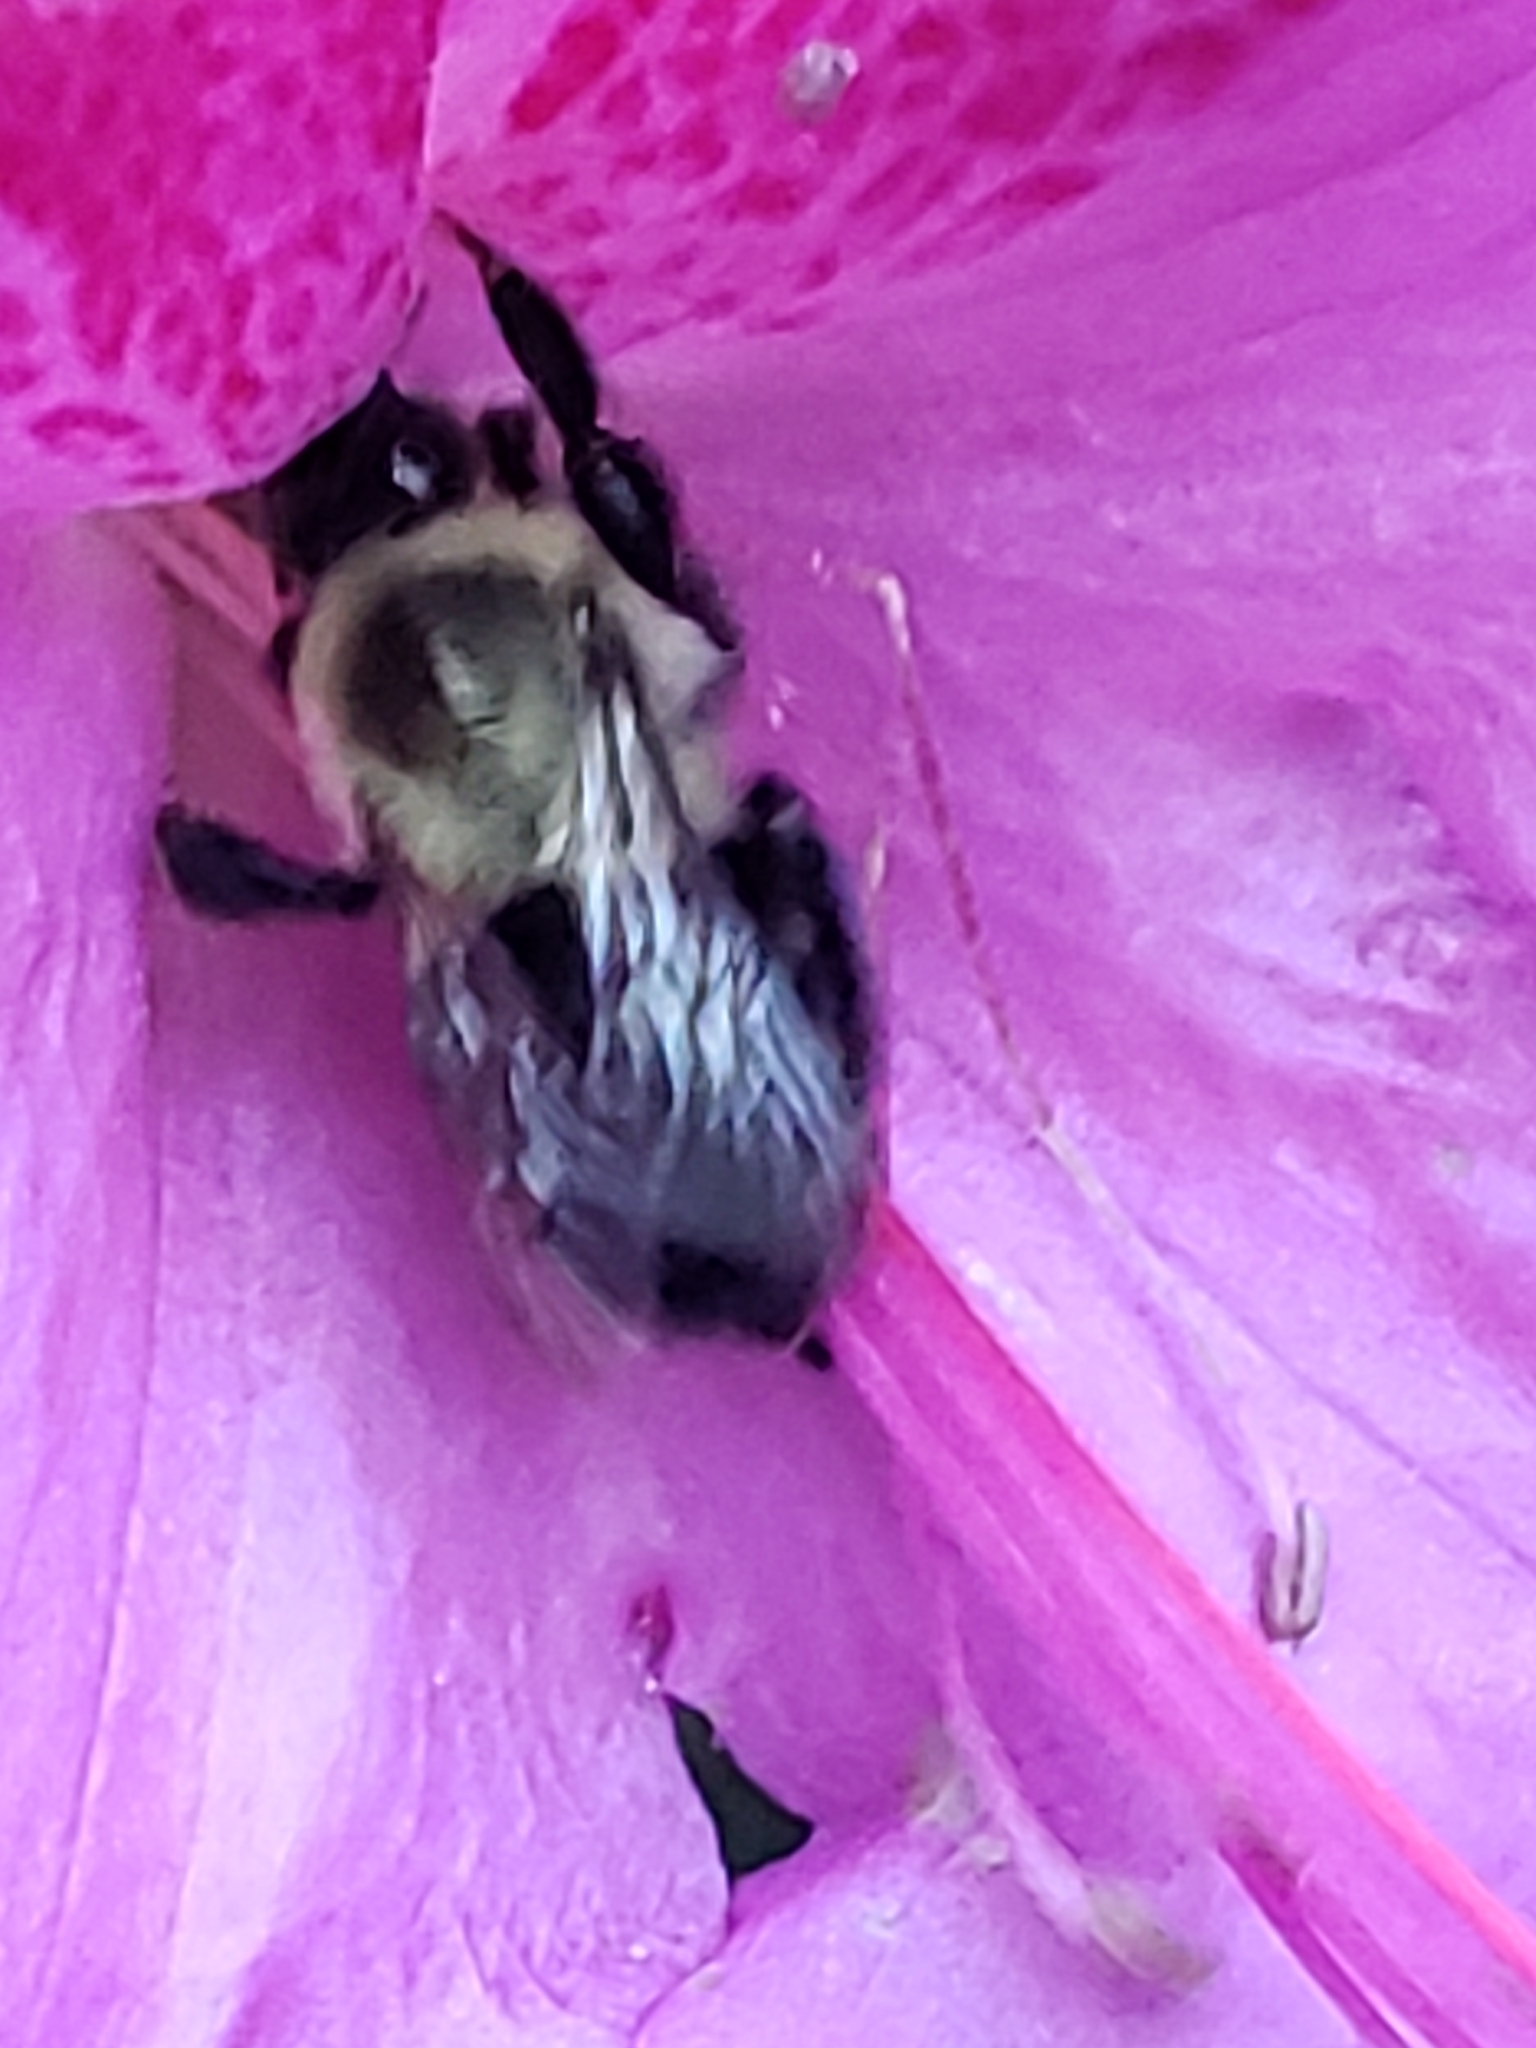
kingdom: Animalia
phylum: Arthropoda
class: Insecta
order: Hymenoptera
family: Apidae
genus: Bombus
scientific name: Bombus impatiens
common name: Common eastern bumble bee
